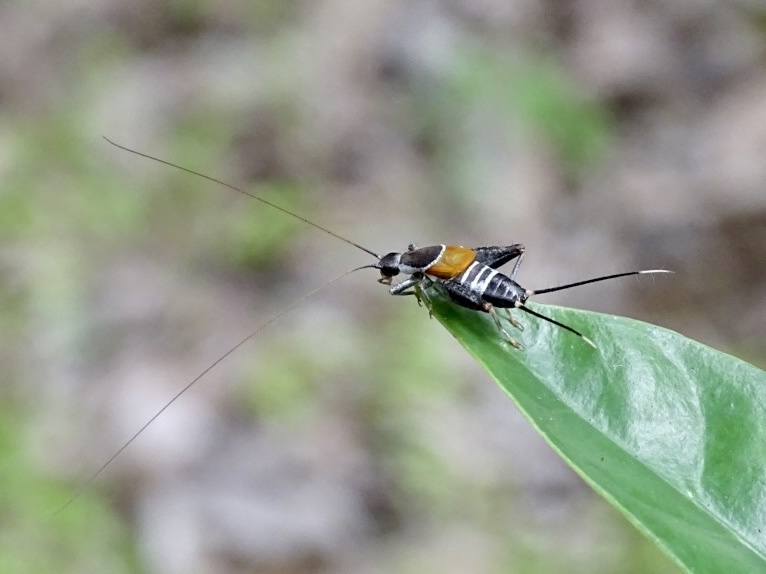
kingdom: Animalia
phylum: Arthropoda
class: Insecta
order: Orthoptera
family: Mogoplistidae
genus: Ornebius
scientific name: Ornebius fuscicerci
